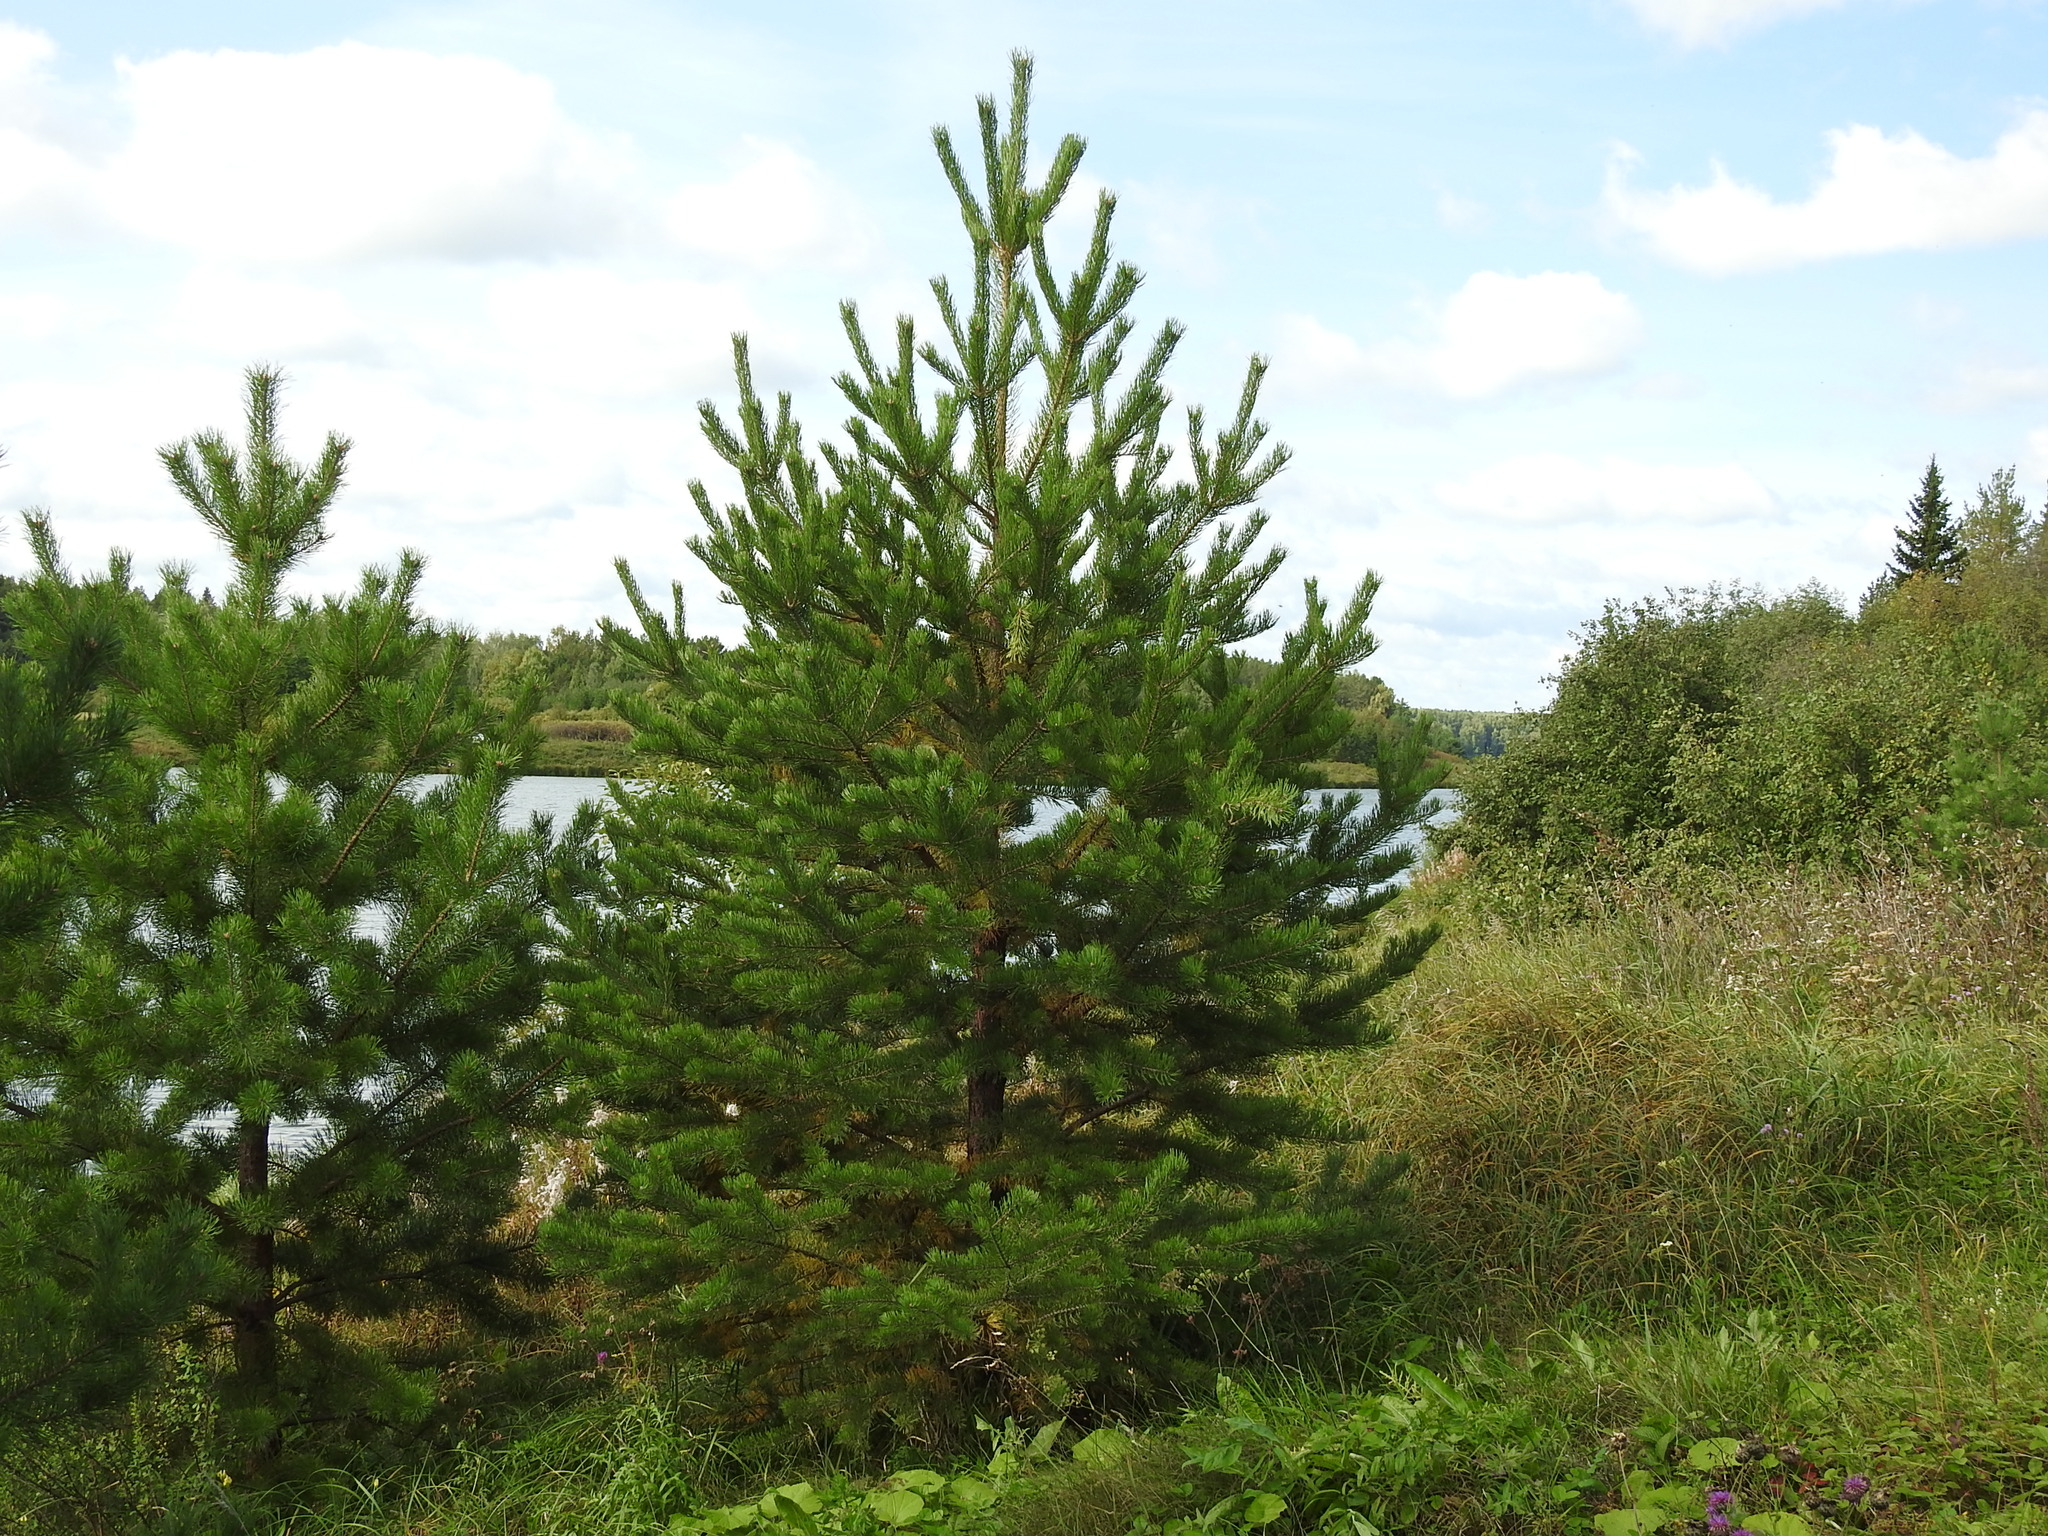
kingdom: Plantae
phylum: Tracheophyta
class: Pinopsida
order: Pinales
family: Pinaceae
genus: Pinus
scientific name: Pinus sylvestris
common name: Scots pine
